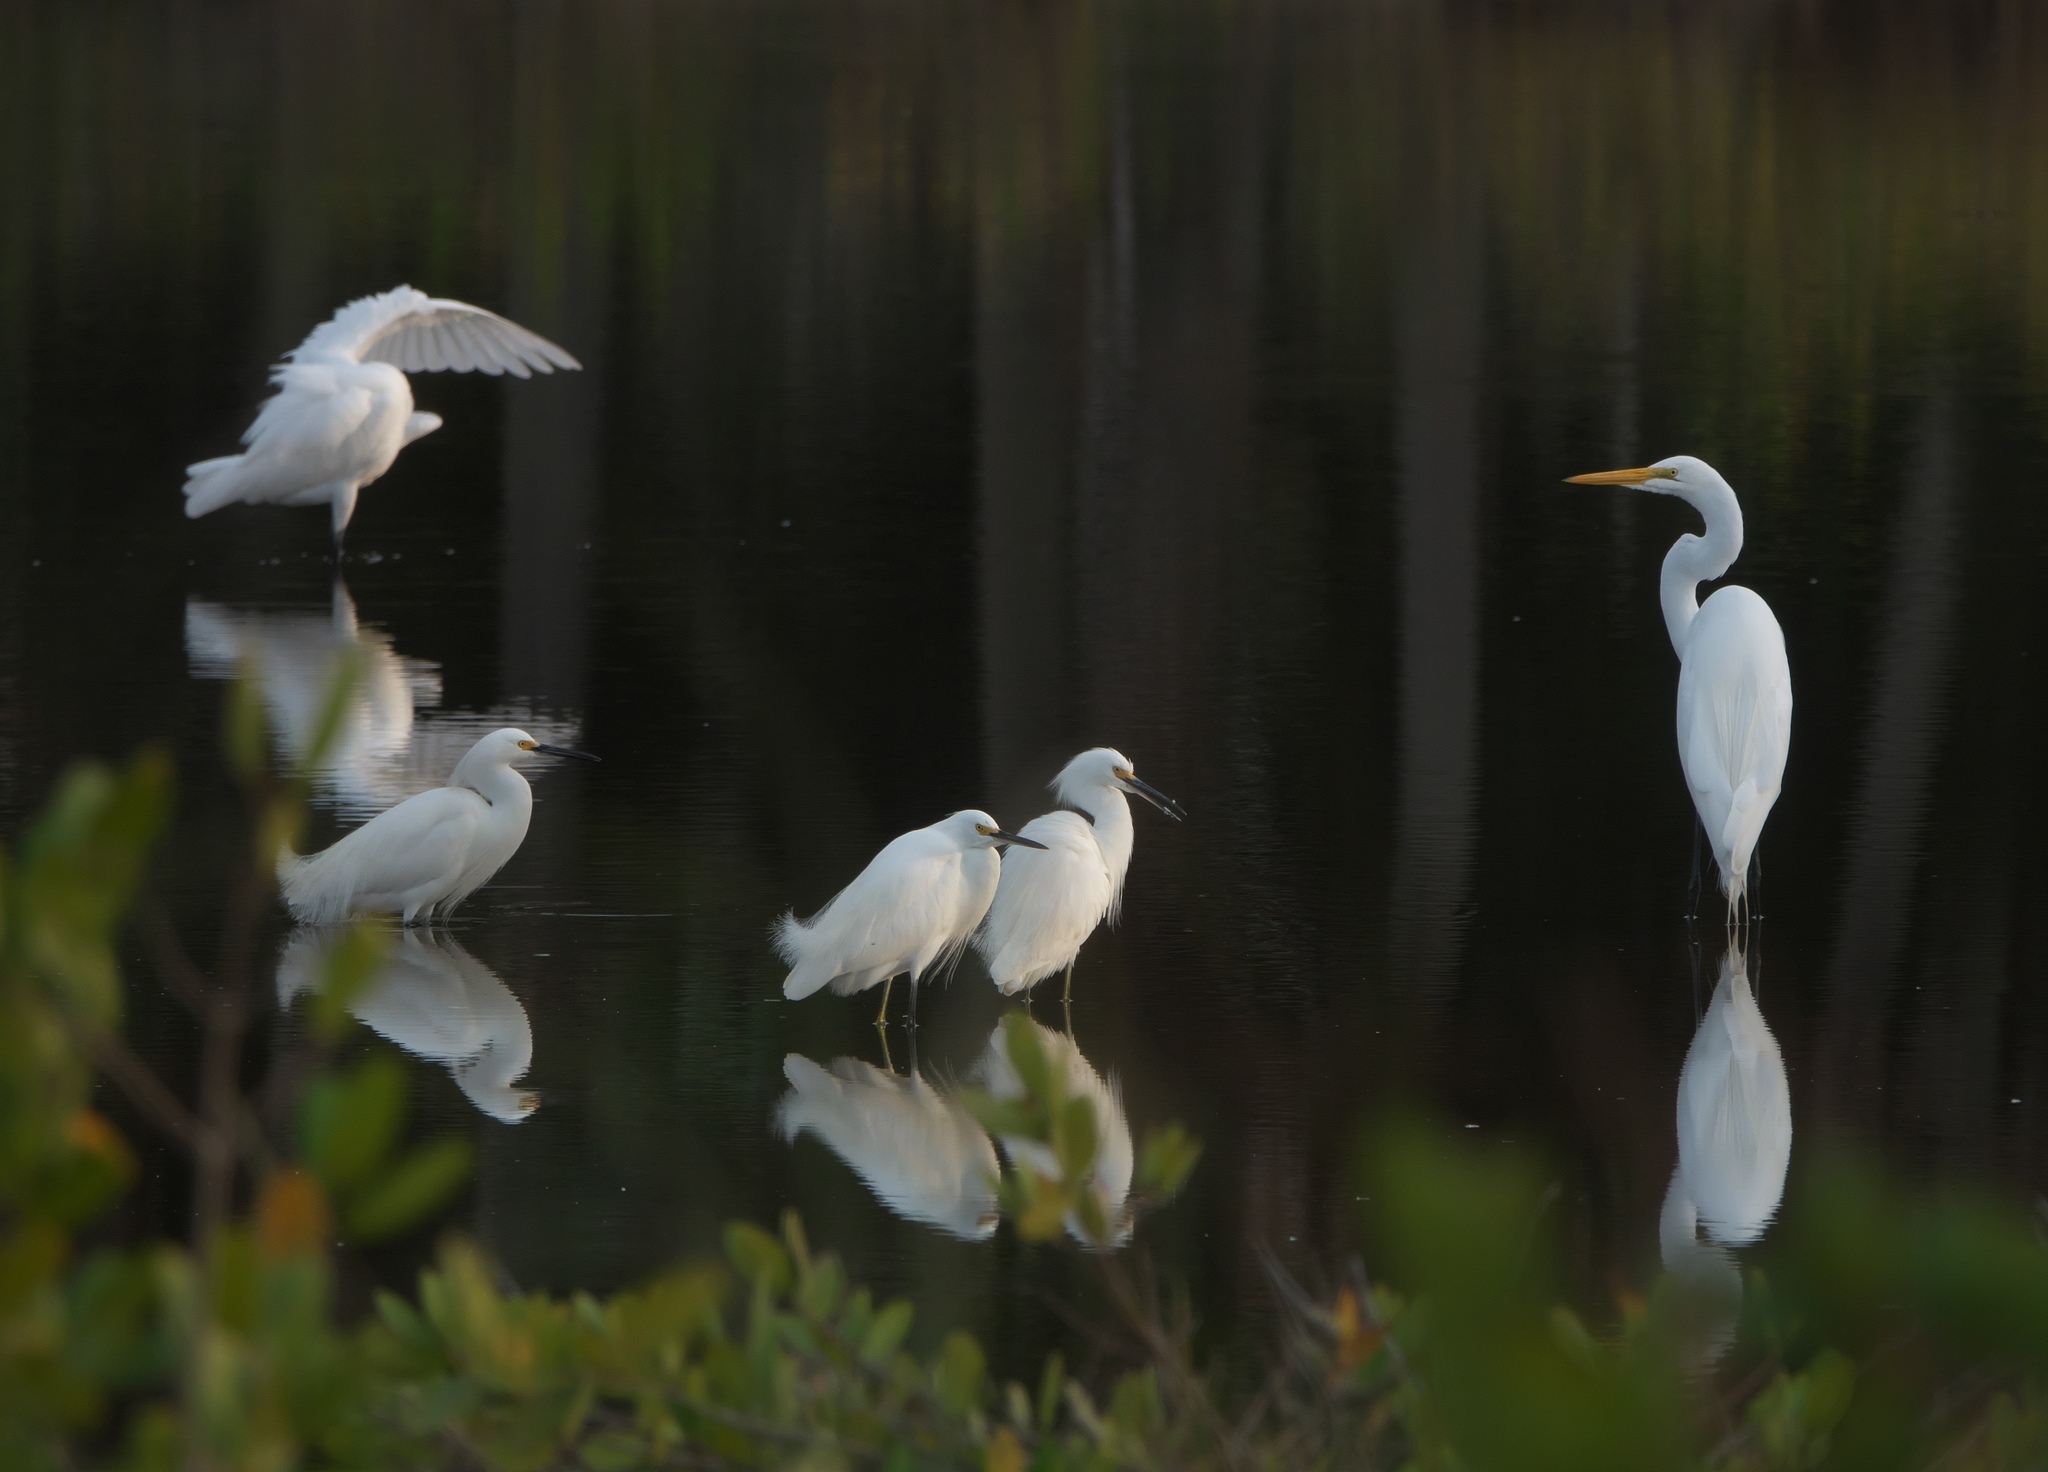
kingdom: Animalia
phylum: Chordata
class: Aves
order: Pelecaniformes
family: Ardeidae
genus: Egretta
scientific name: Egretta thula
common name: Snowy egret
